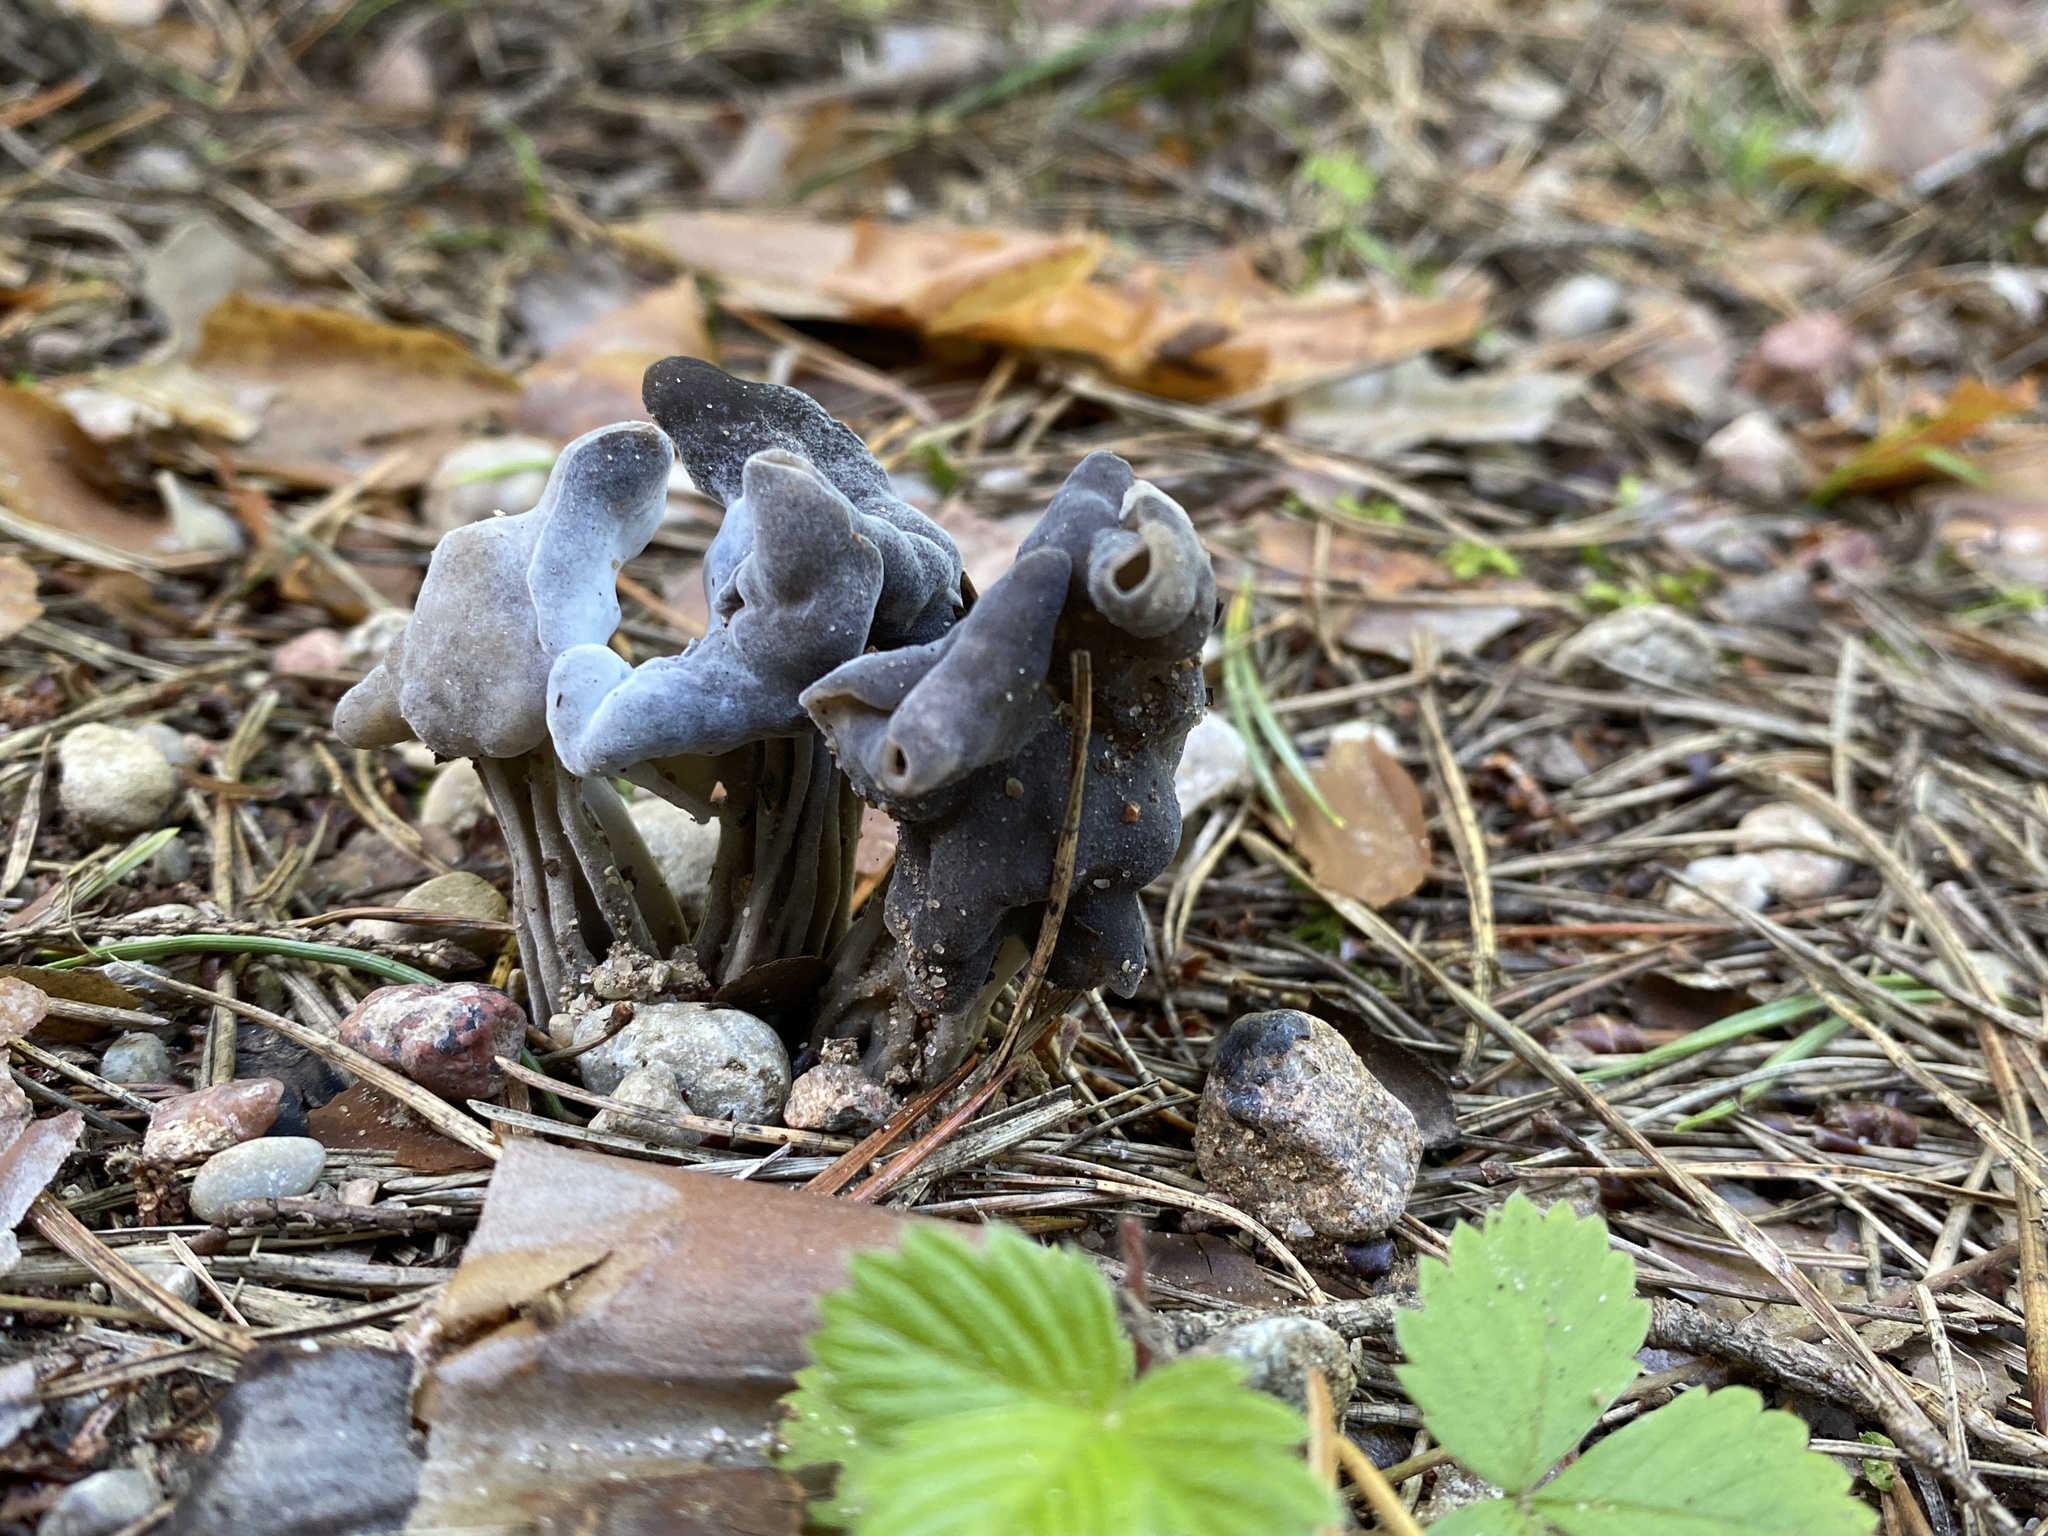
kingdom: Fungi
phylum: Ascomycota
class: Pezizomycetes
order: Pezizales
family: Helvellaceae
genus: Helvella
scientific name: Helvella lacunosa
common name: Elfin saddle
